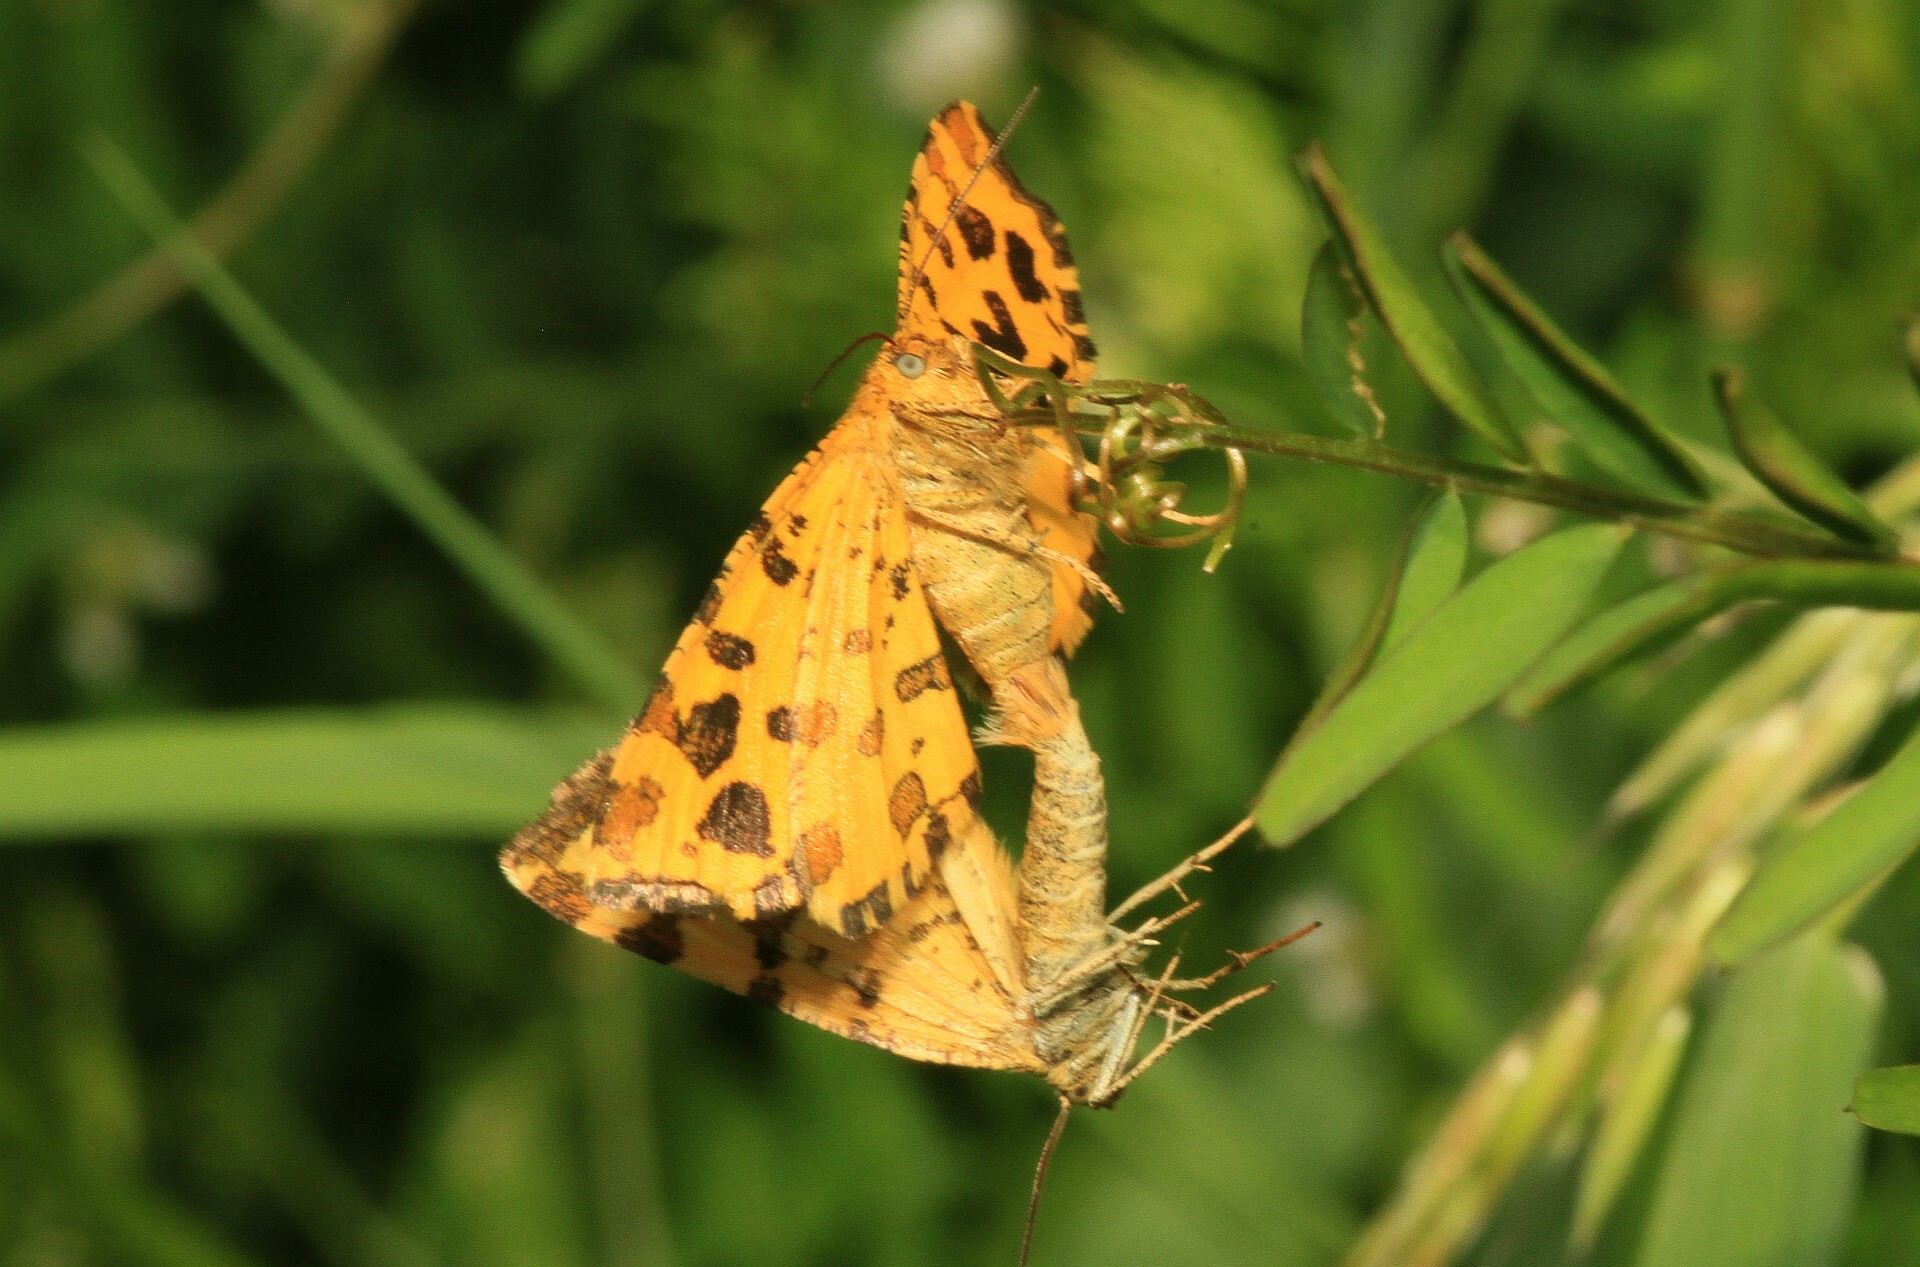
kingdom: Animalia
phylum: Arthropoda
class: Insecta
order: Lepidoptera
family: Geometridae
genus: Pseudopanthera
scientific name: Pseudopanthera macularia
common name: Speckled yellow
